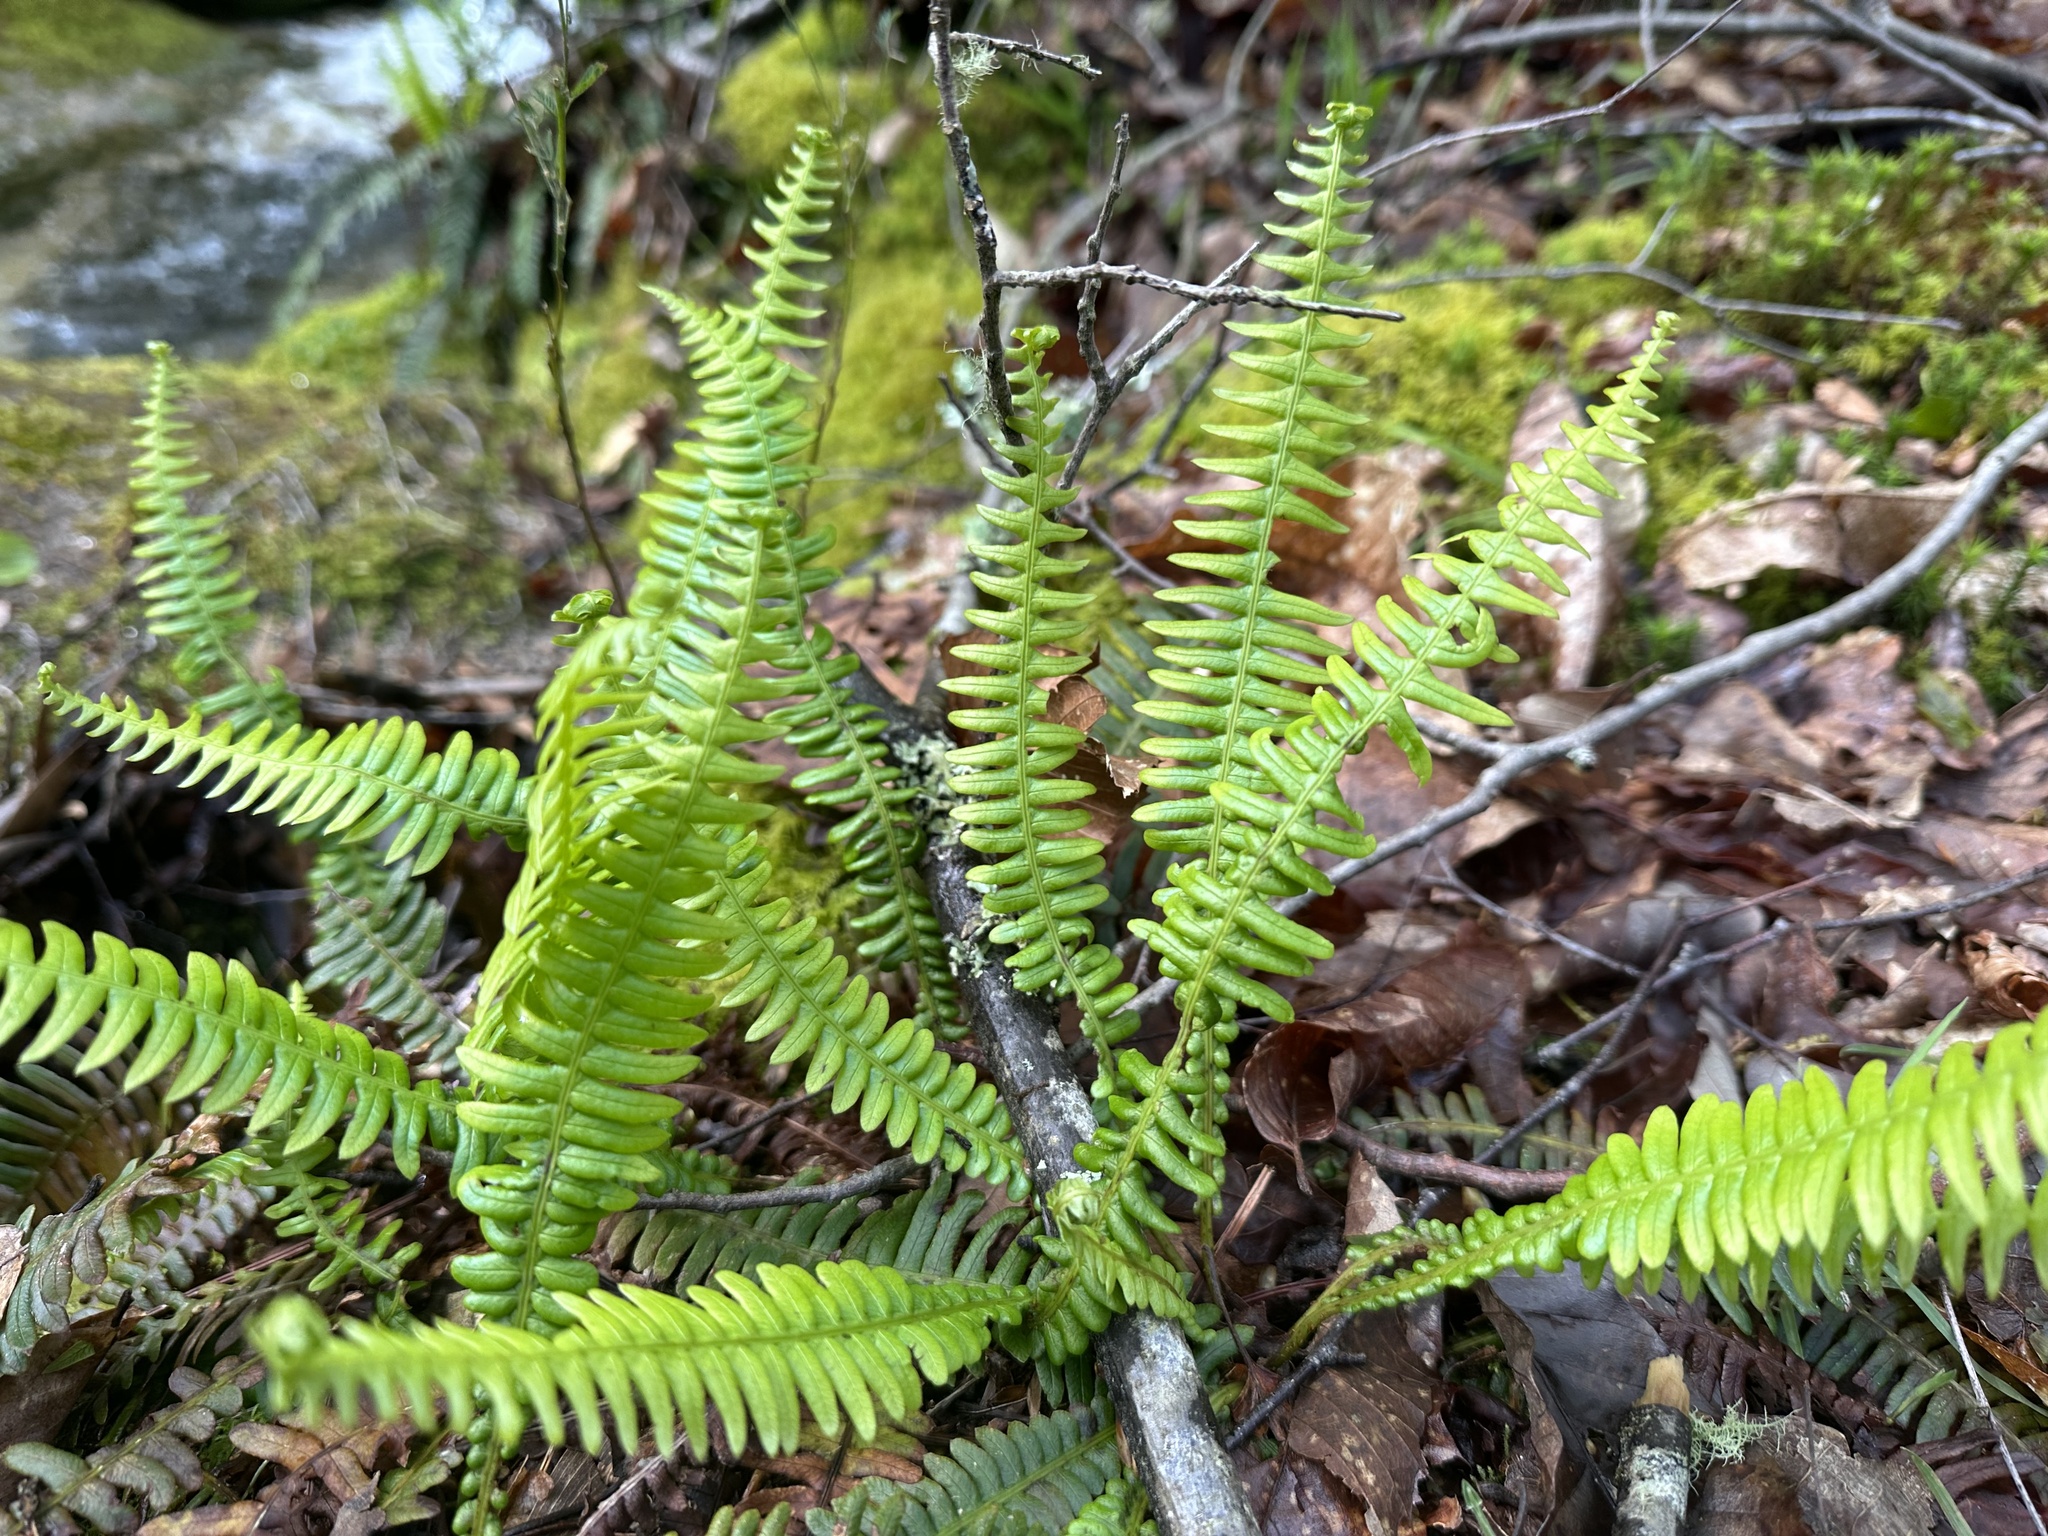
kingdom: Plantae
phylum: Tracheophyta
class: Polypodiopsida
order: Polypodiales
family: Blechnaceae
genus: Struthiopteris
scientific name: Struthiopteris spicant
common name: Deer fern
